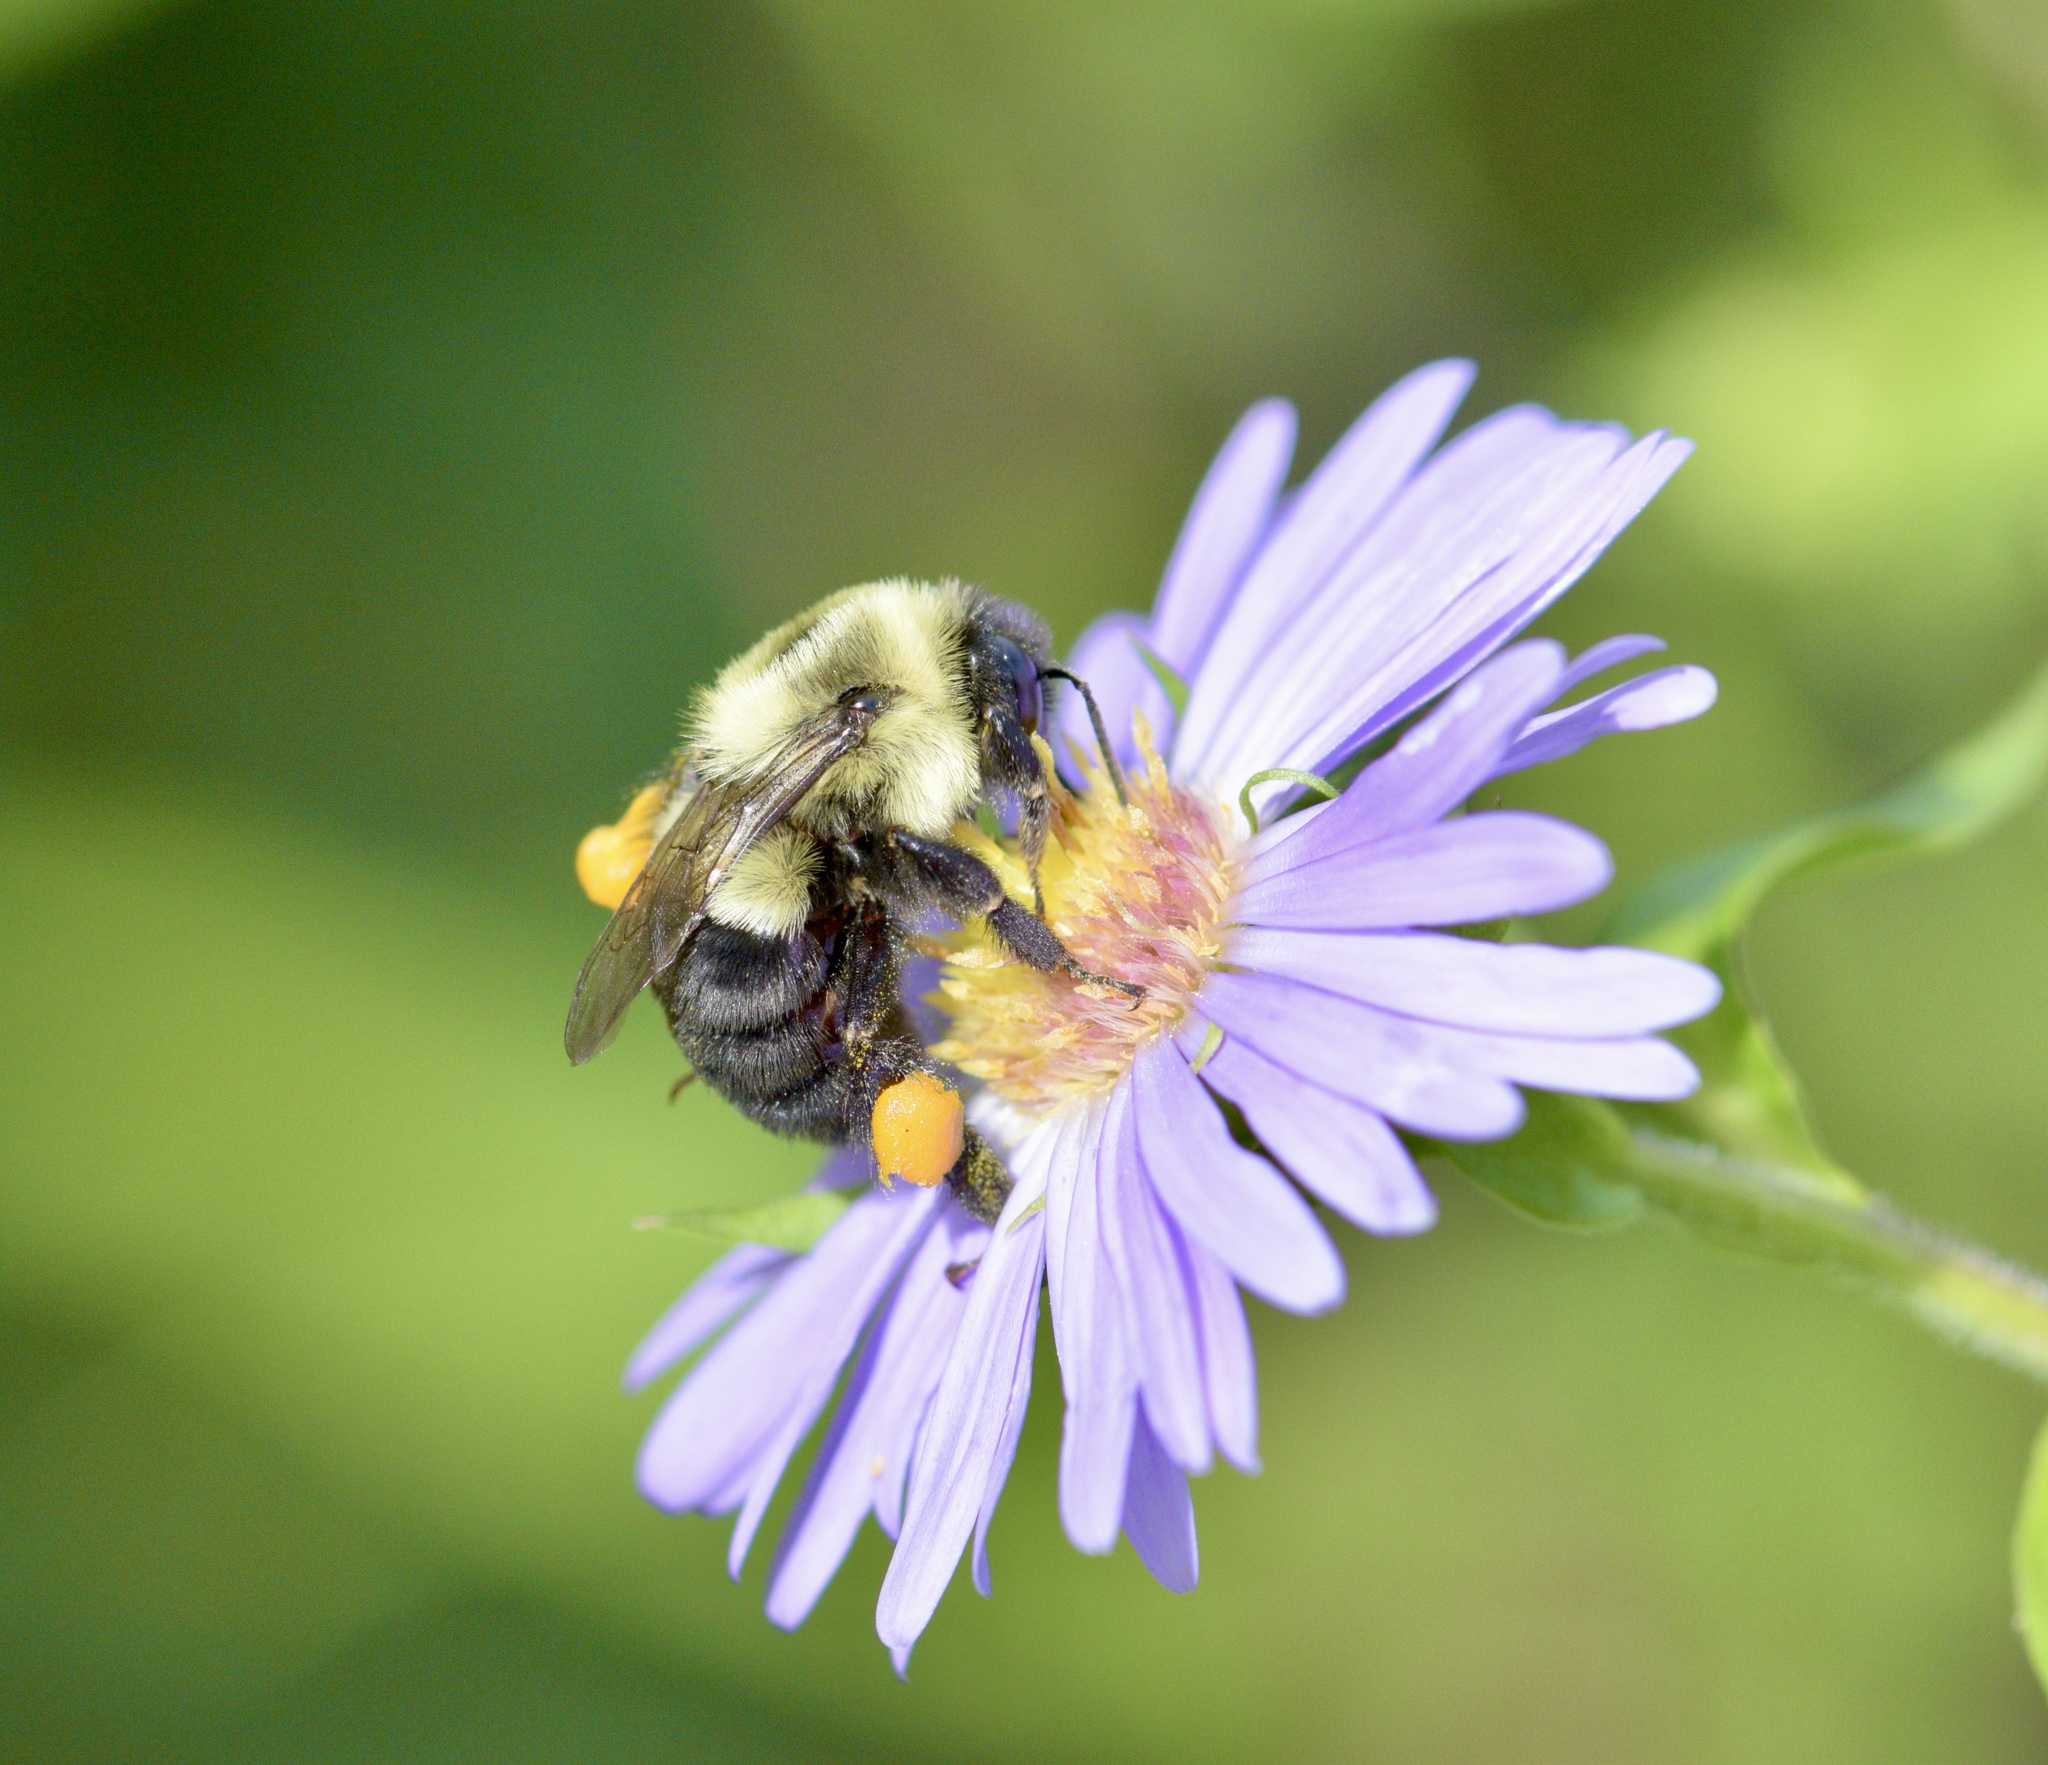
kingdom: Animalia
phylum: Arthropoda
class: Insecta
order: Hymenoptera
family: Apidae
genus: Bombus
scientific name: Bombus impatiens
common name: Common eastern bumble bee
